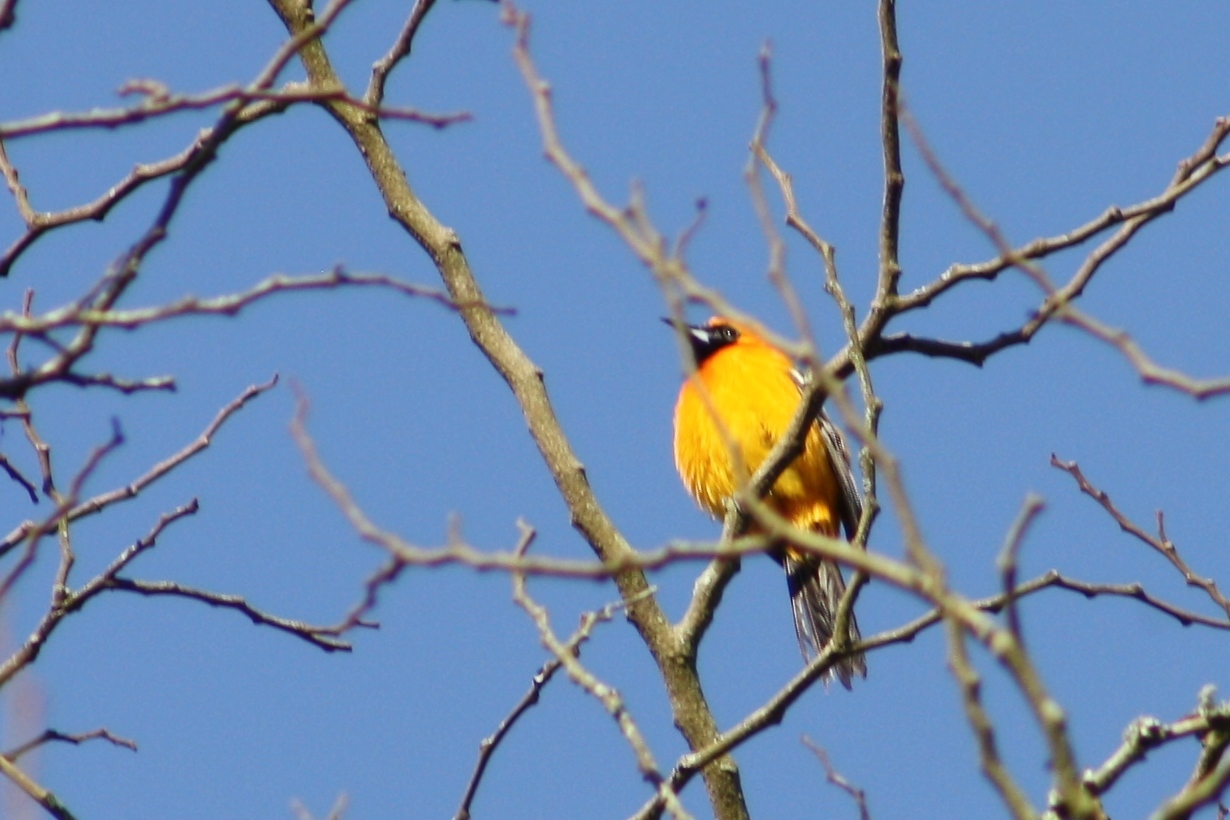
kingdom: Animalia
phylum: Chordata
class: Aves
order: Passeriformes
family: Icteridae
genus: Icterus
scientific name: Icterus cucullatus
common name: Hooded oriole
